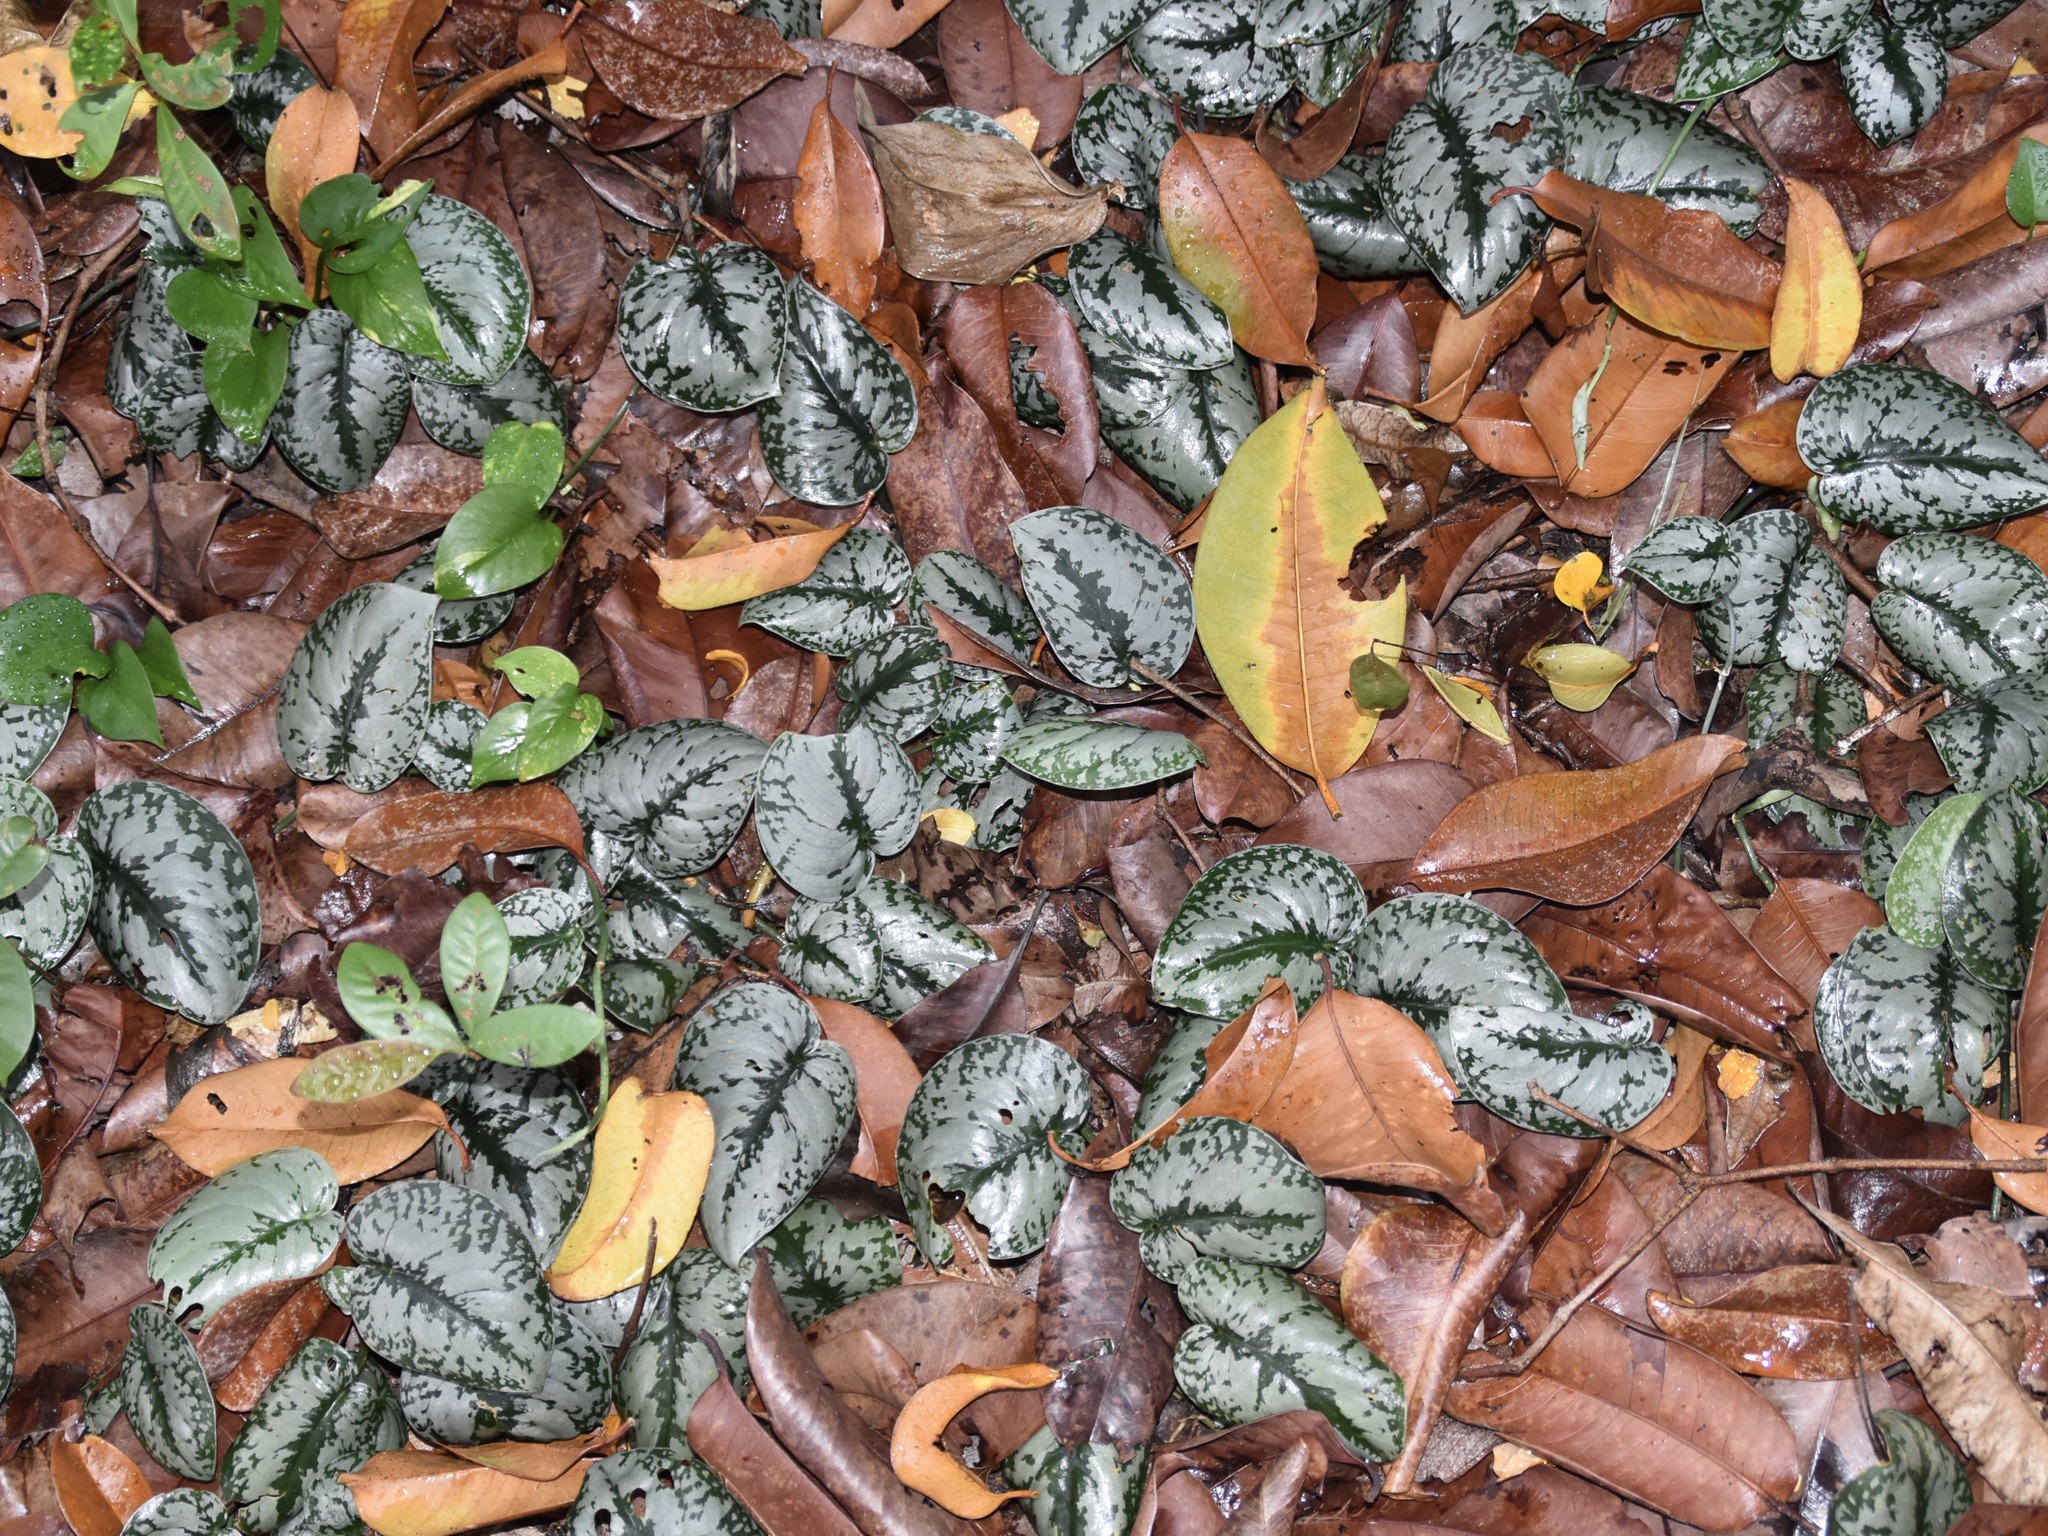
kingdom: Plantae
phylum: Tracheophyta
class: Liliopsida
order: Alismatales
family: Araceae
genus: Scindapsus
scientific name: Scindapsus pictus
